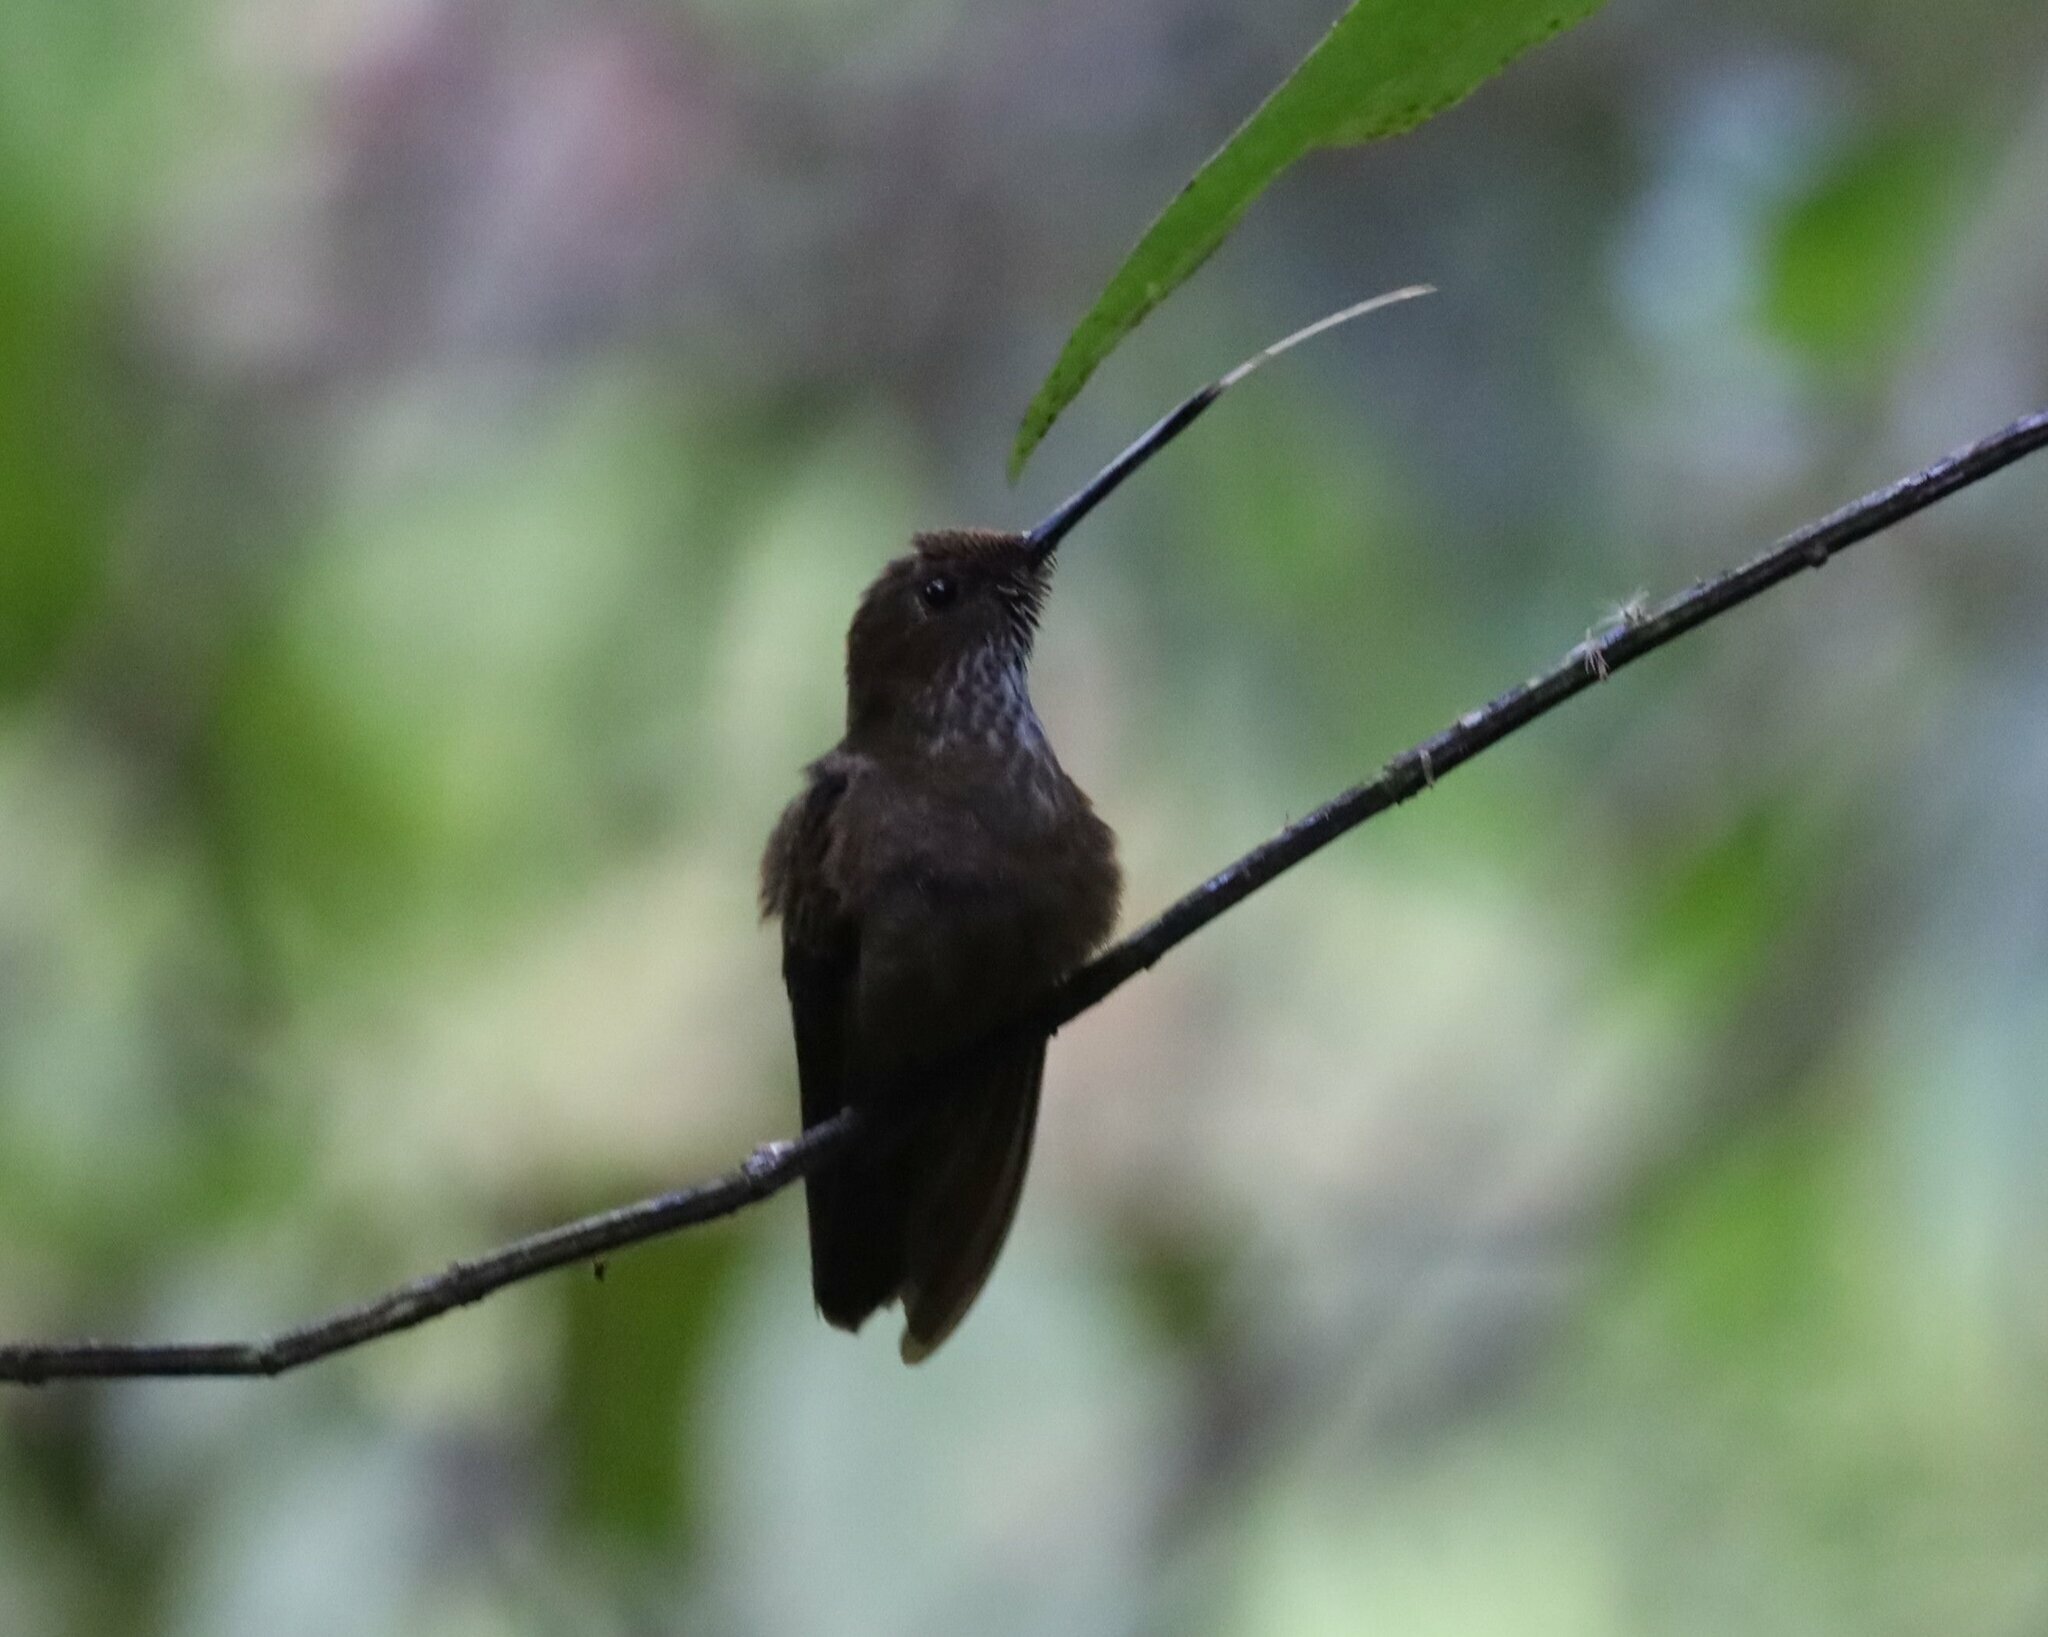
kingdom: Animalia
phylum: Chordata
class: Aves
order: Apodiformes
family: Trochilidae
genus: Coeligena
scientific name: Coeligena coeligena
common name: Bronzy inca
